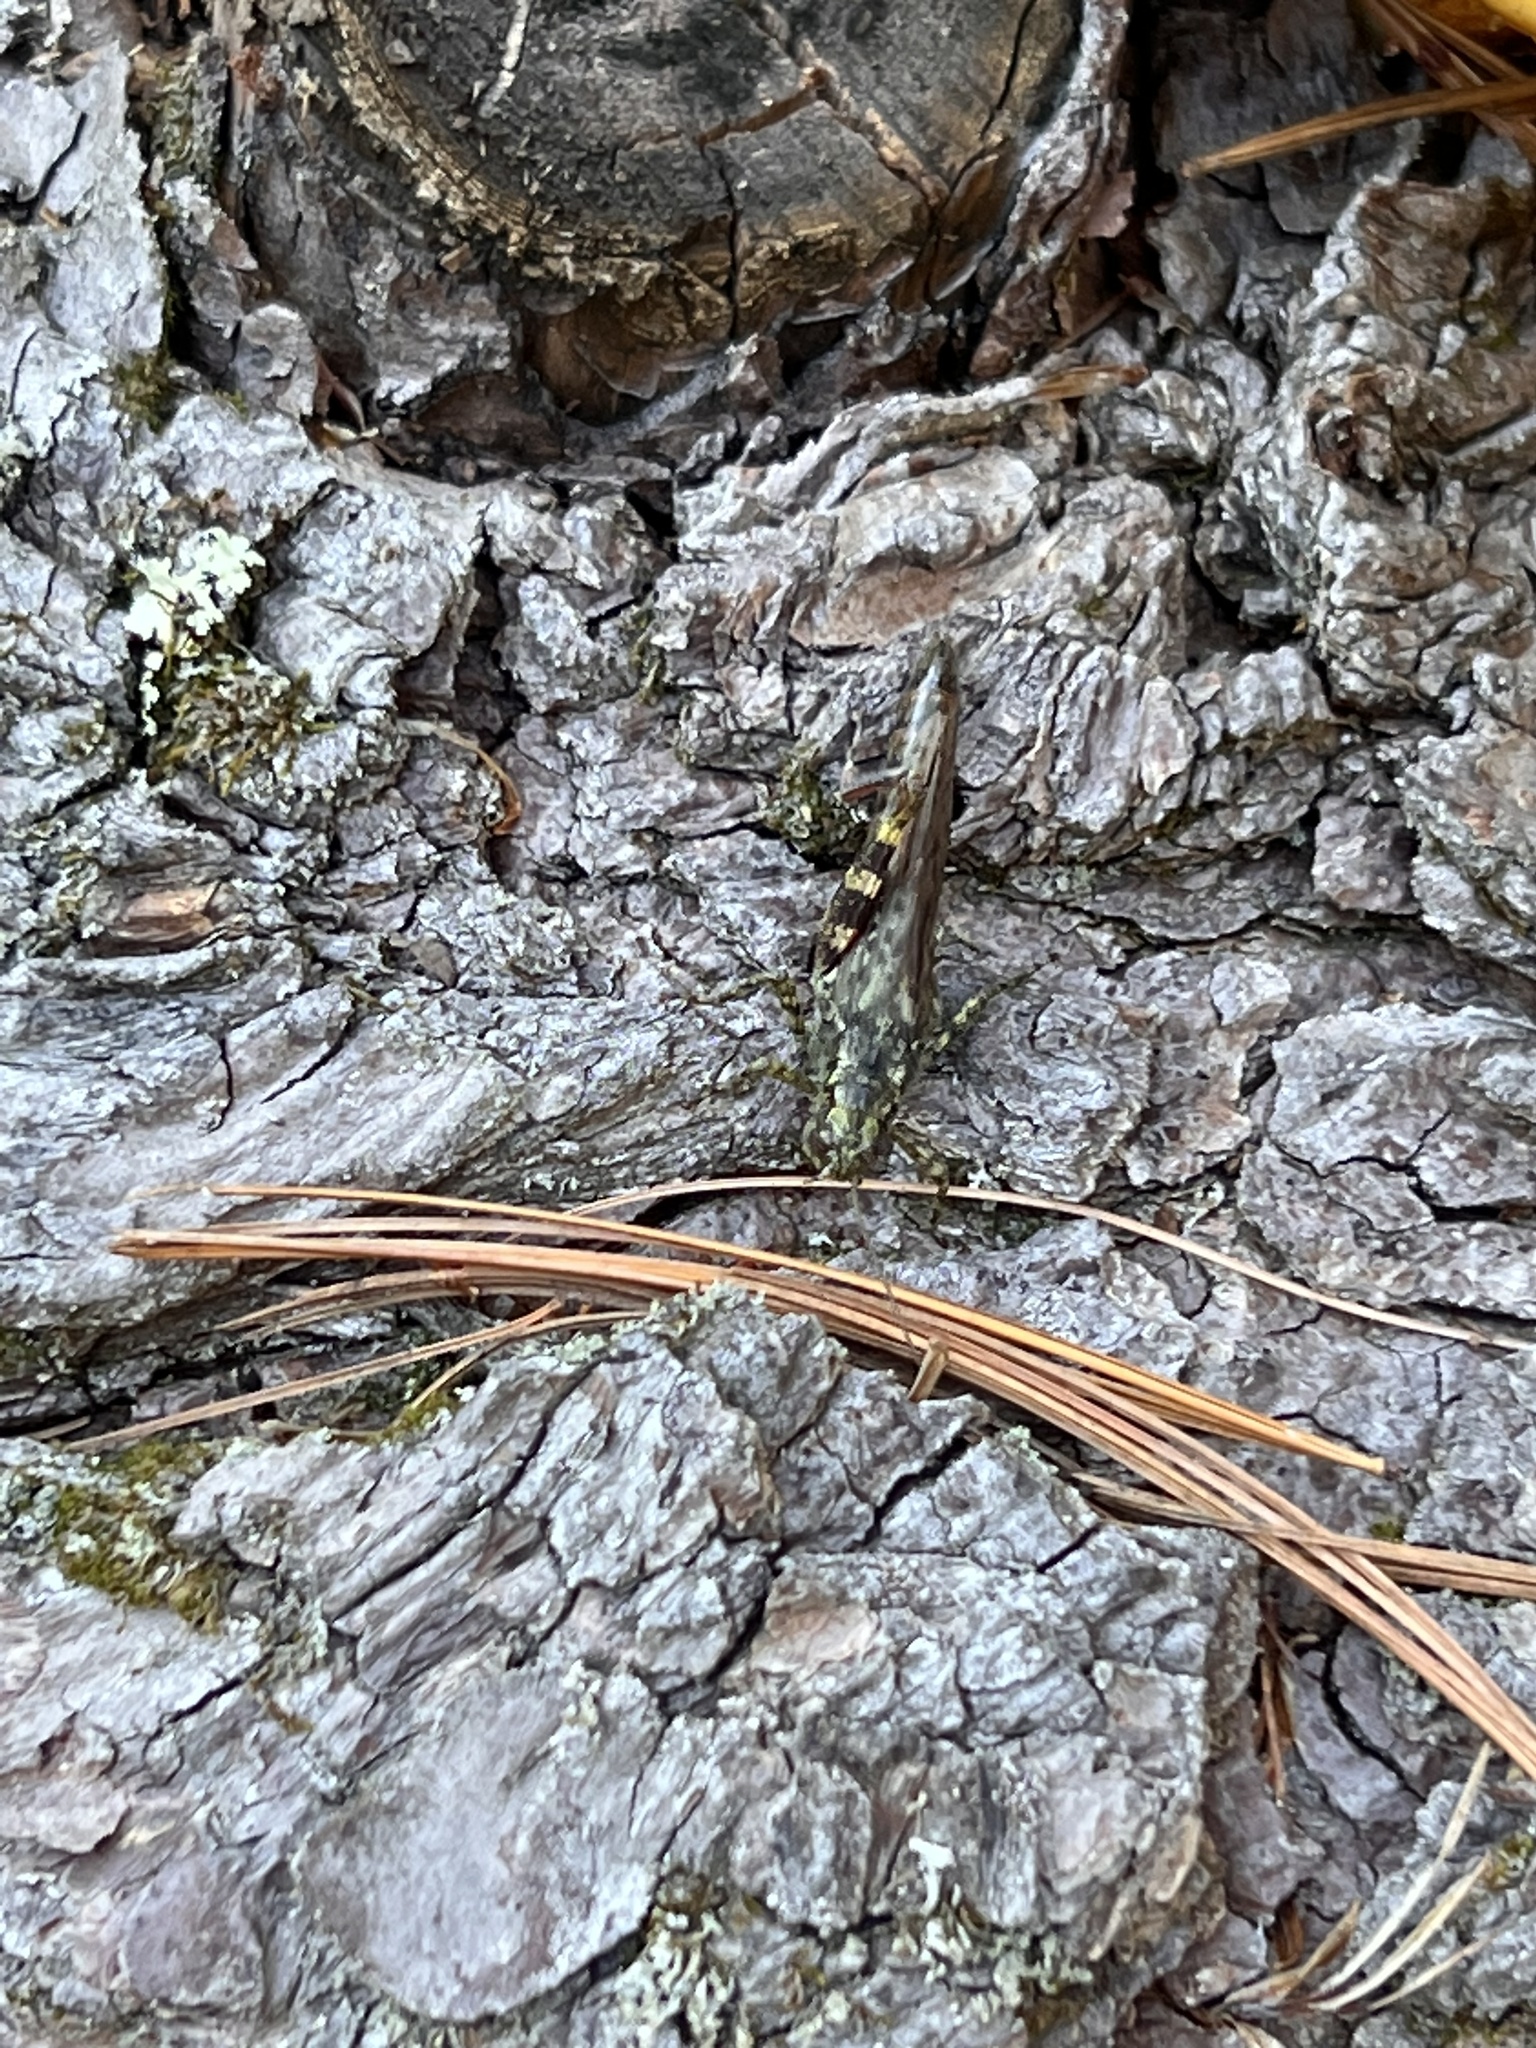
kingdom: Animalia
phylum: Arthropoda
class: Insecta
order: Orthoptera
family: Acrididae
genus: Melanoplus
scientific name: Melanoplus punctulatus
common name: Pine-tree spur-throat grasshopper
